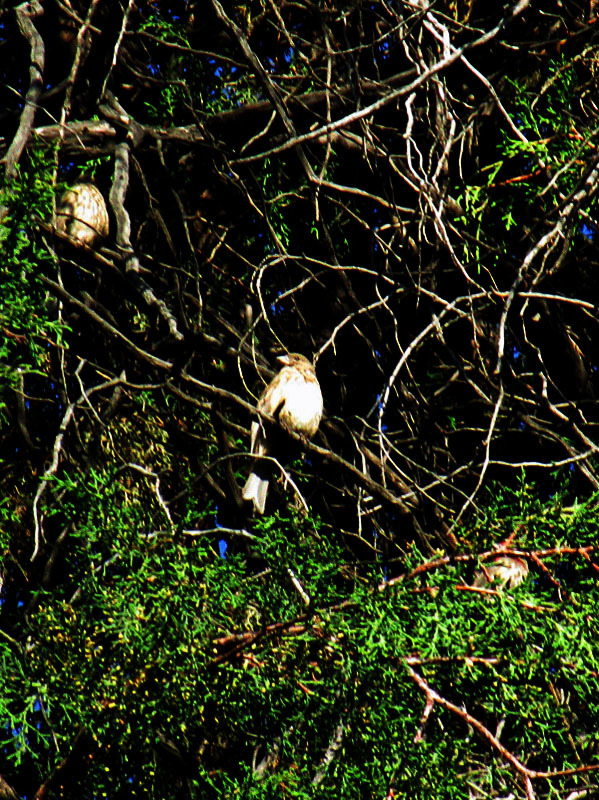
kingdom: Animalia
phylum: Chordata
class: Aves
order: Passeriformes
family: Fringillidae
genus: Haemorhous
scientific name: Haemorhous mexicanus
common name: House finch
